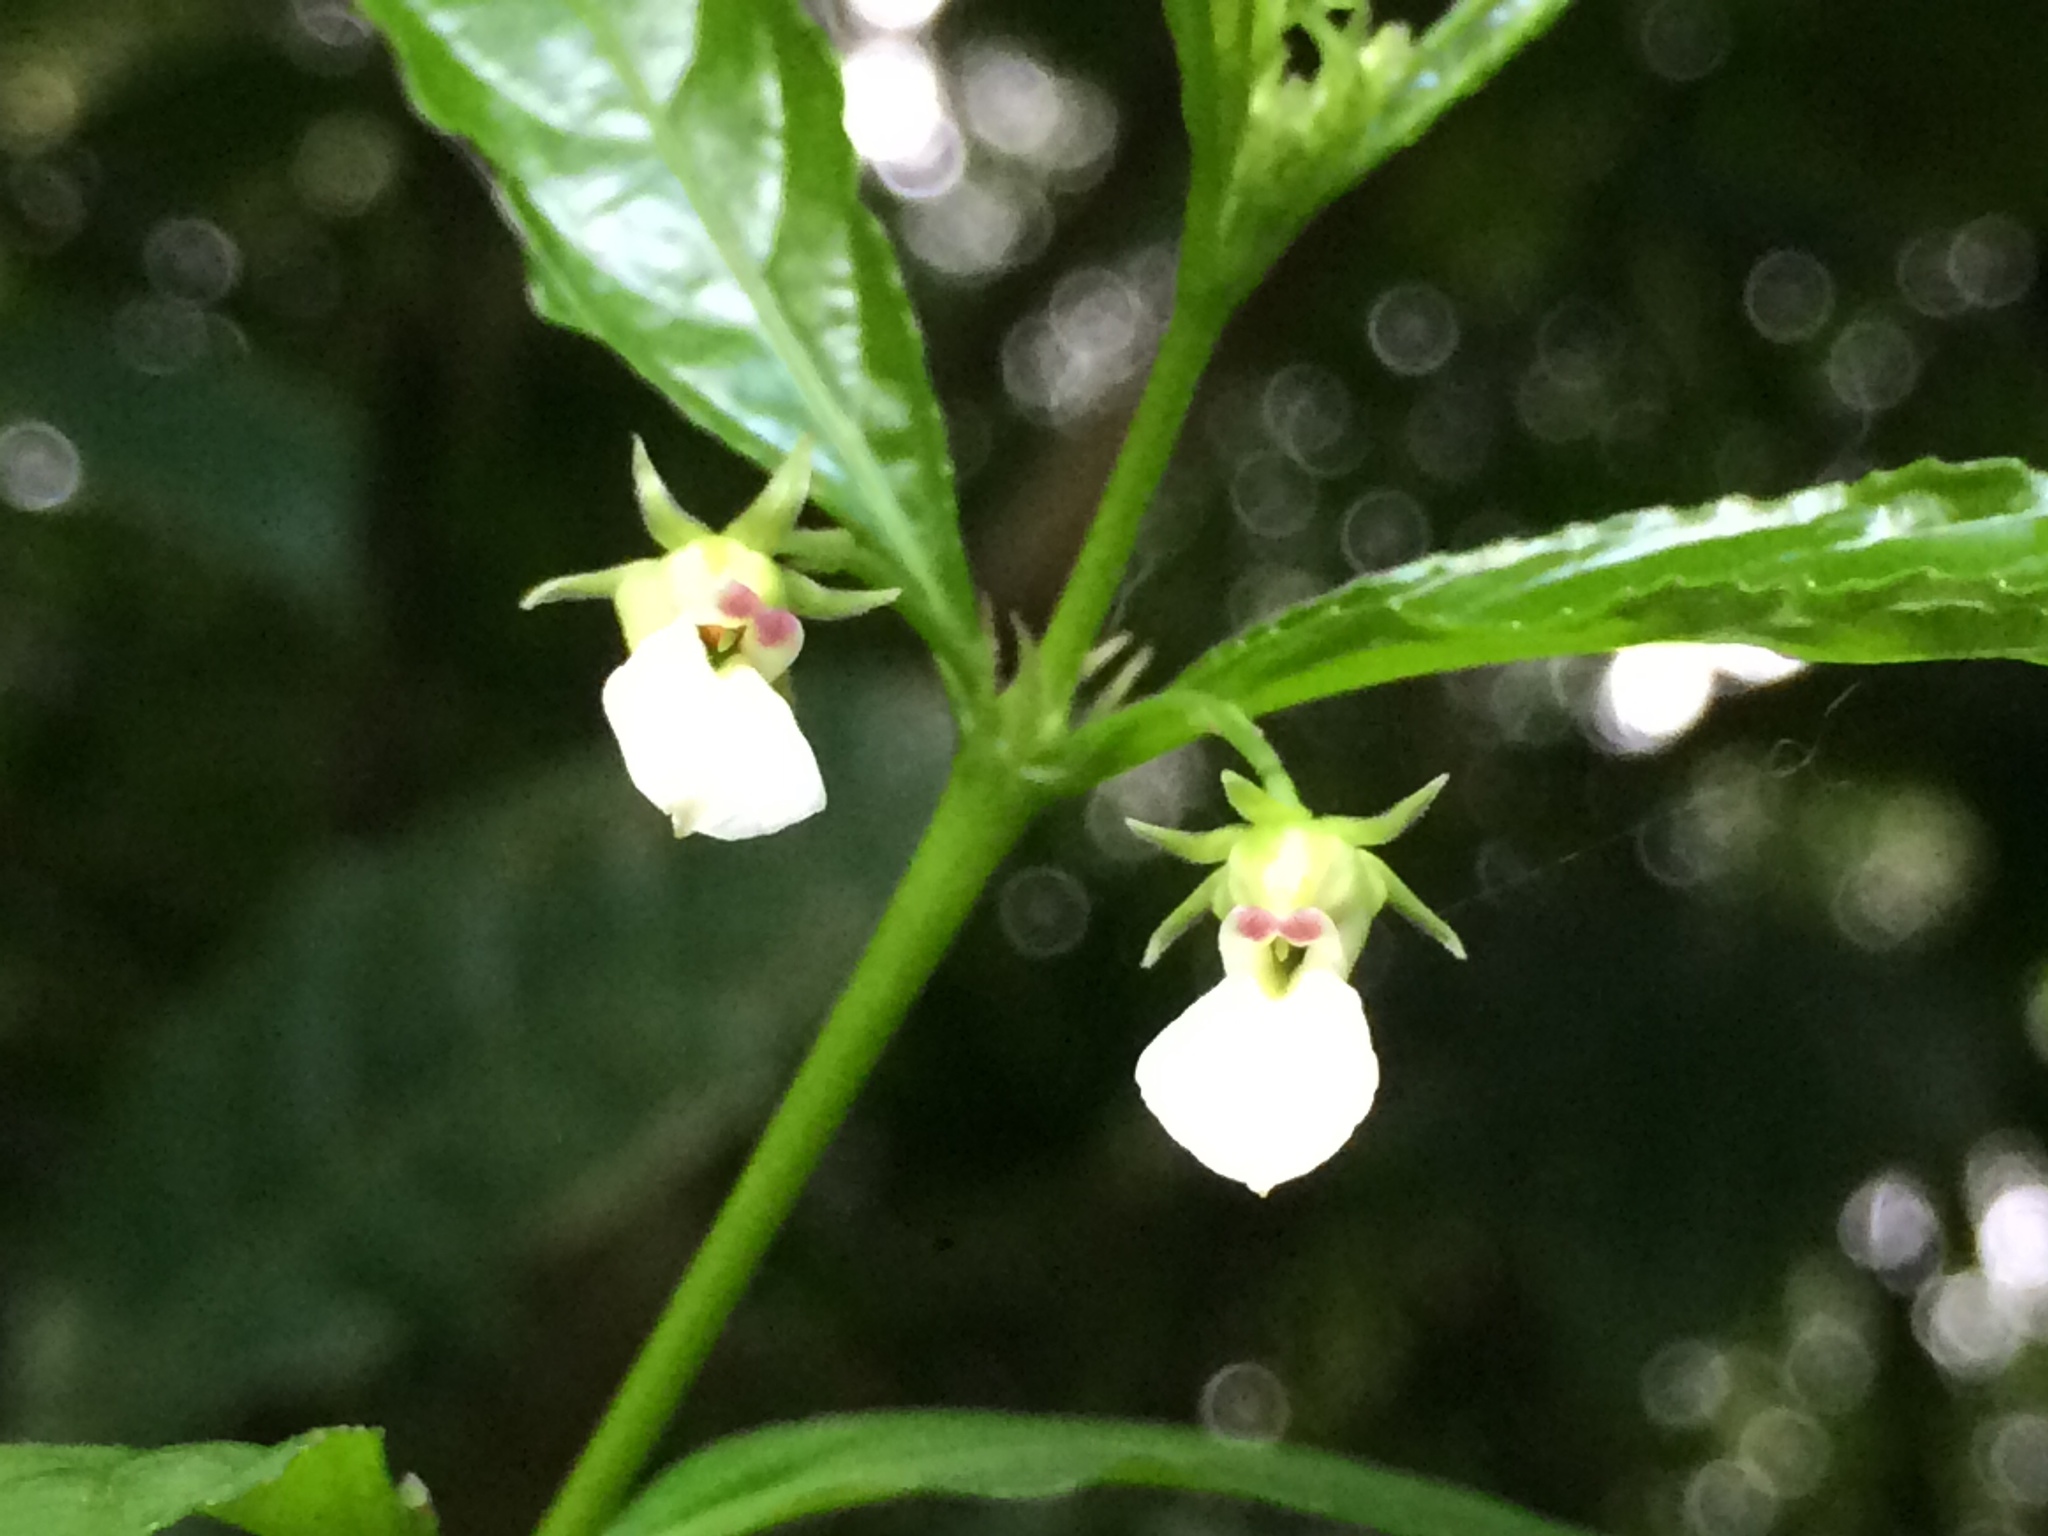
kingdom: Plantae
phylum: Tracheophyta
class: Magnoliopsida
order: Malpighiales
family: Violaceae
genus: Pombalia
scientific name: Pombalia bigibbosa
